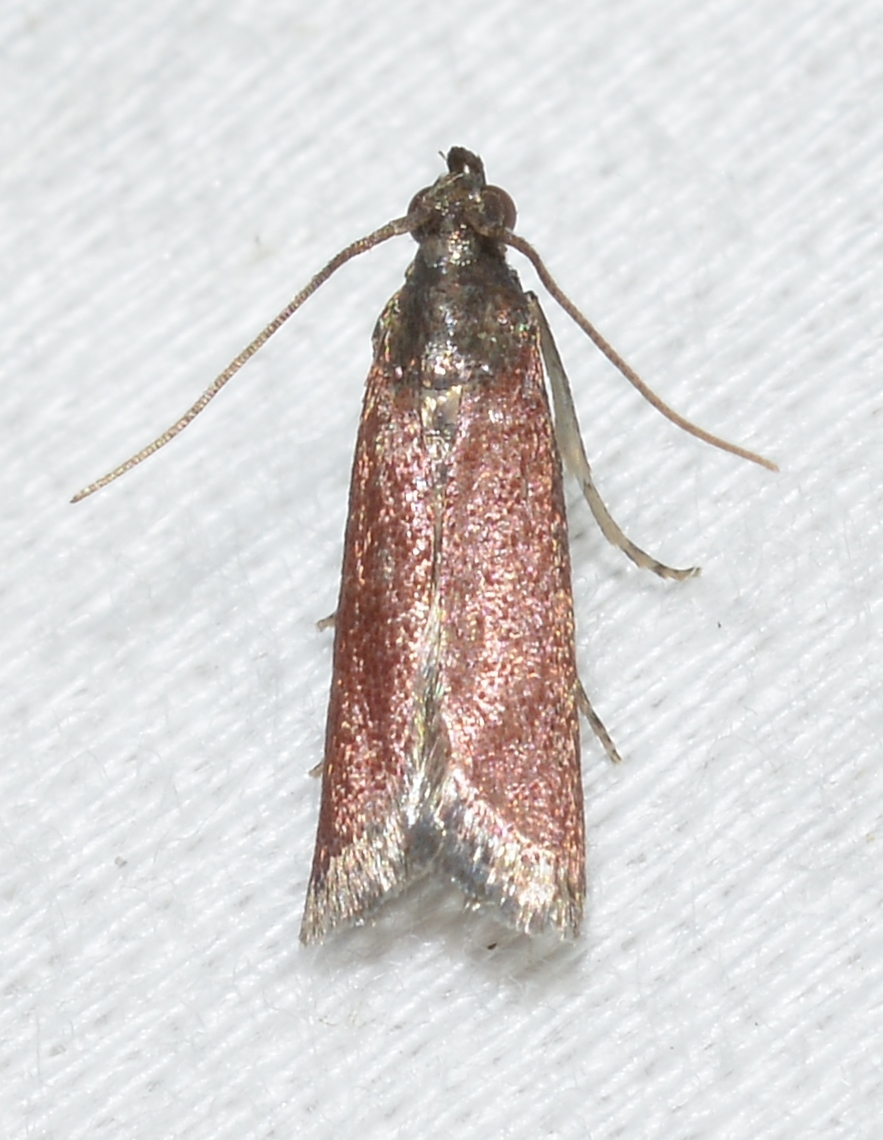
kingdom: Animalia
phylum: Arthropoda
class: Insecta
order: Lepidoptera
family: Pyralidae
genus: Varneria
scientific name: Varneria postremella
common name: Rusty varneria moth
